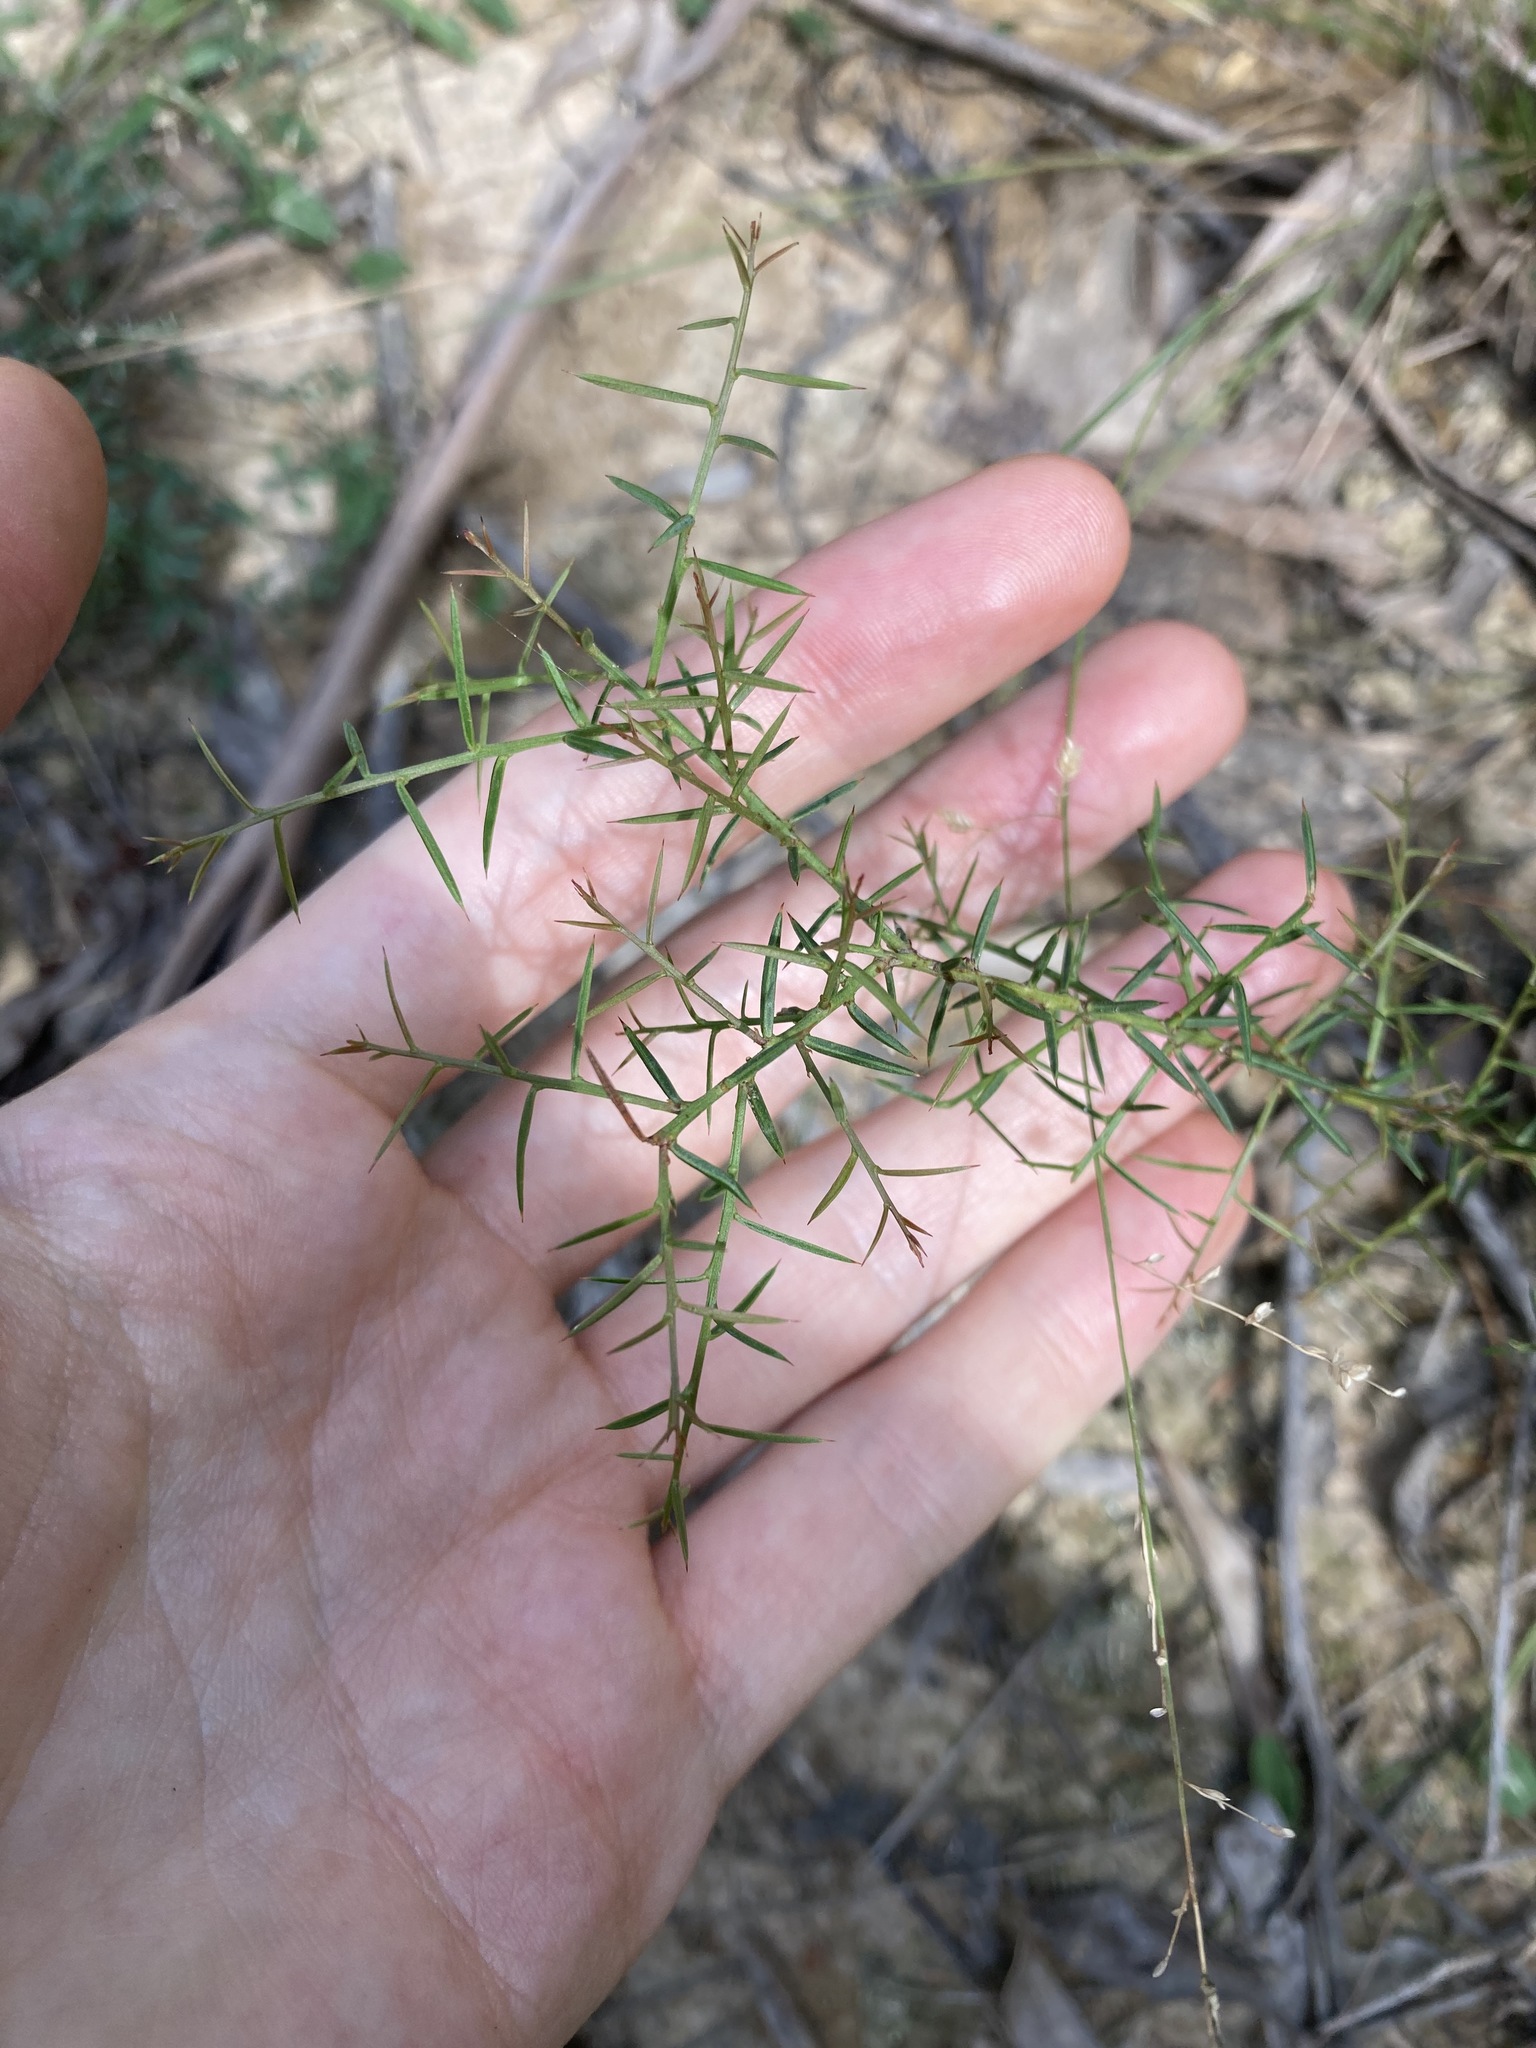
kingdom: Plantae
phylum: Tracheophyta
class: Magnoliopsida
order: Fabales
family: Fabaceae
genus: Daviesia
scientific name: Daviesia ulicifolia
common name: Gorse bitter-pea
